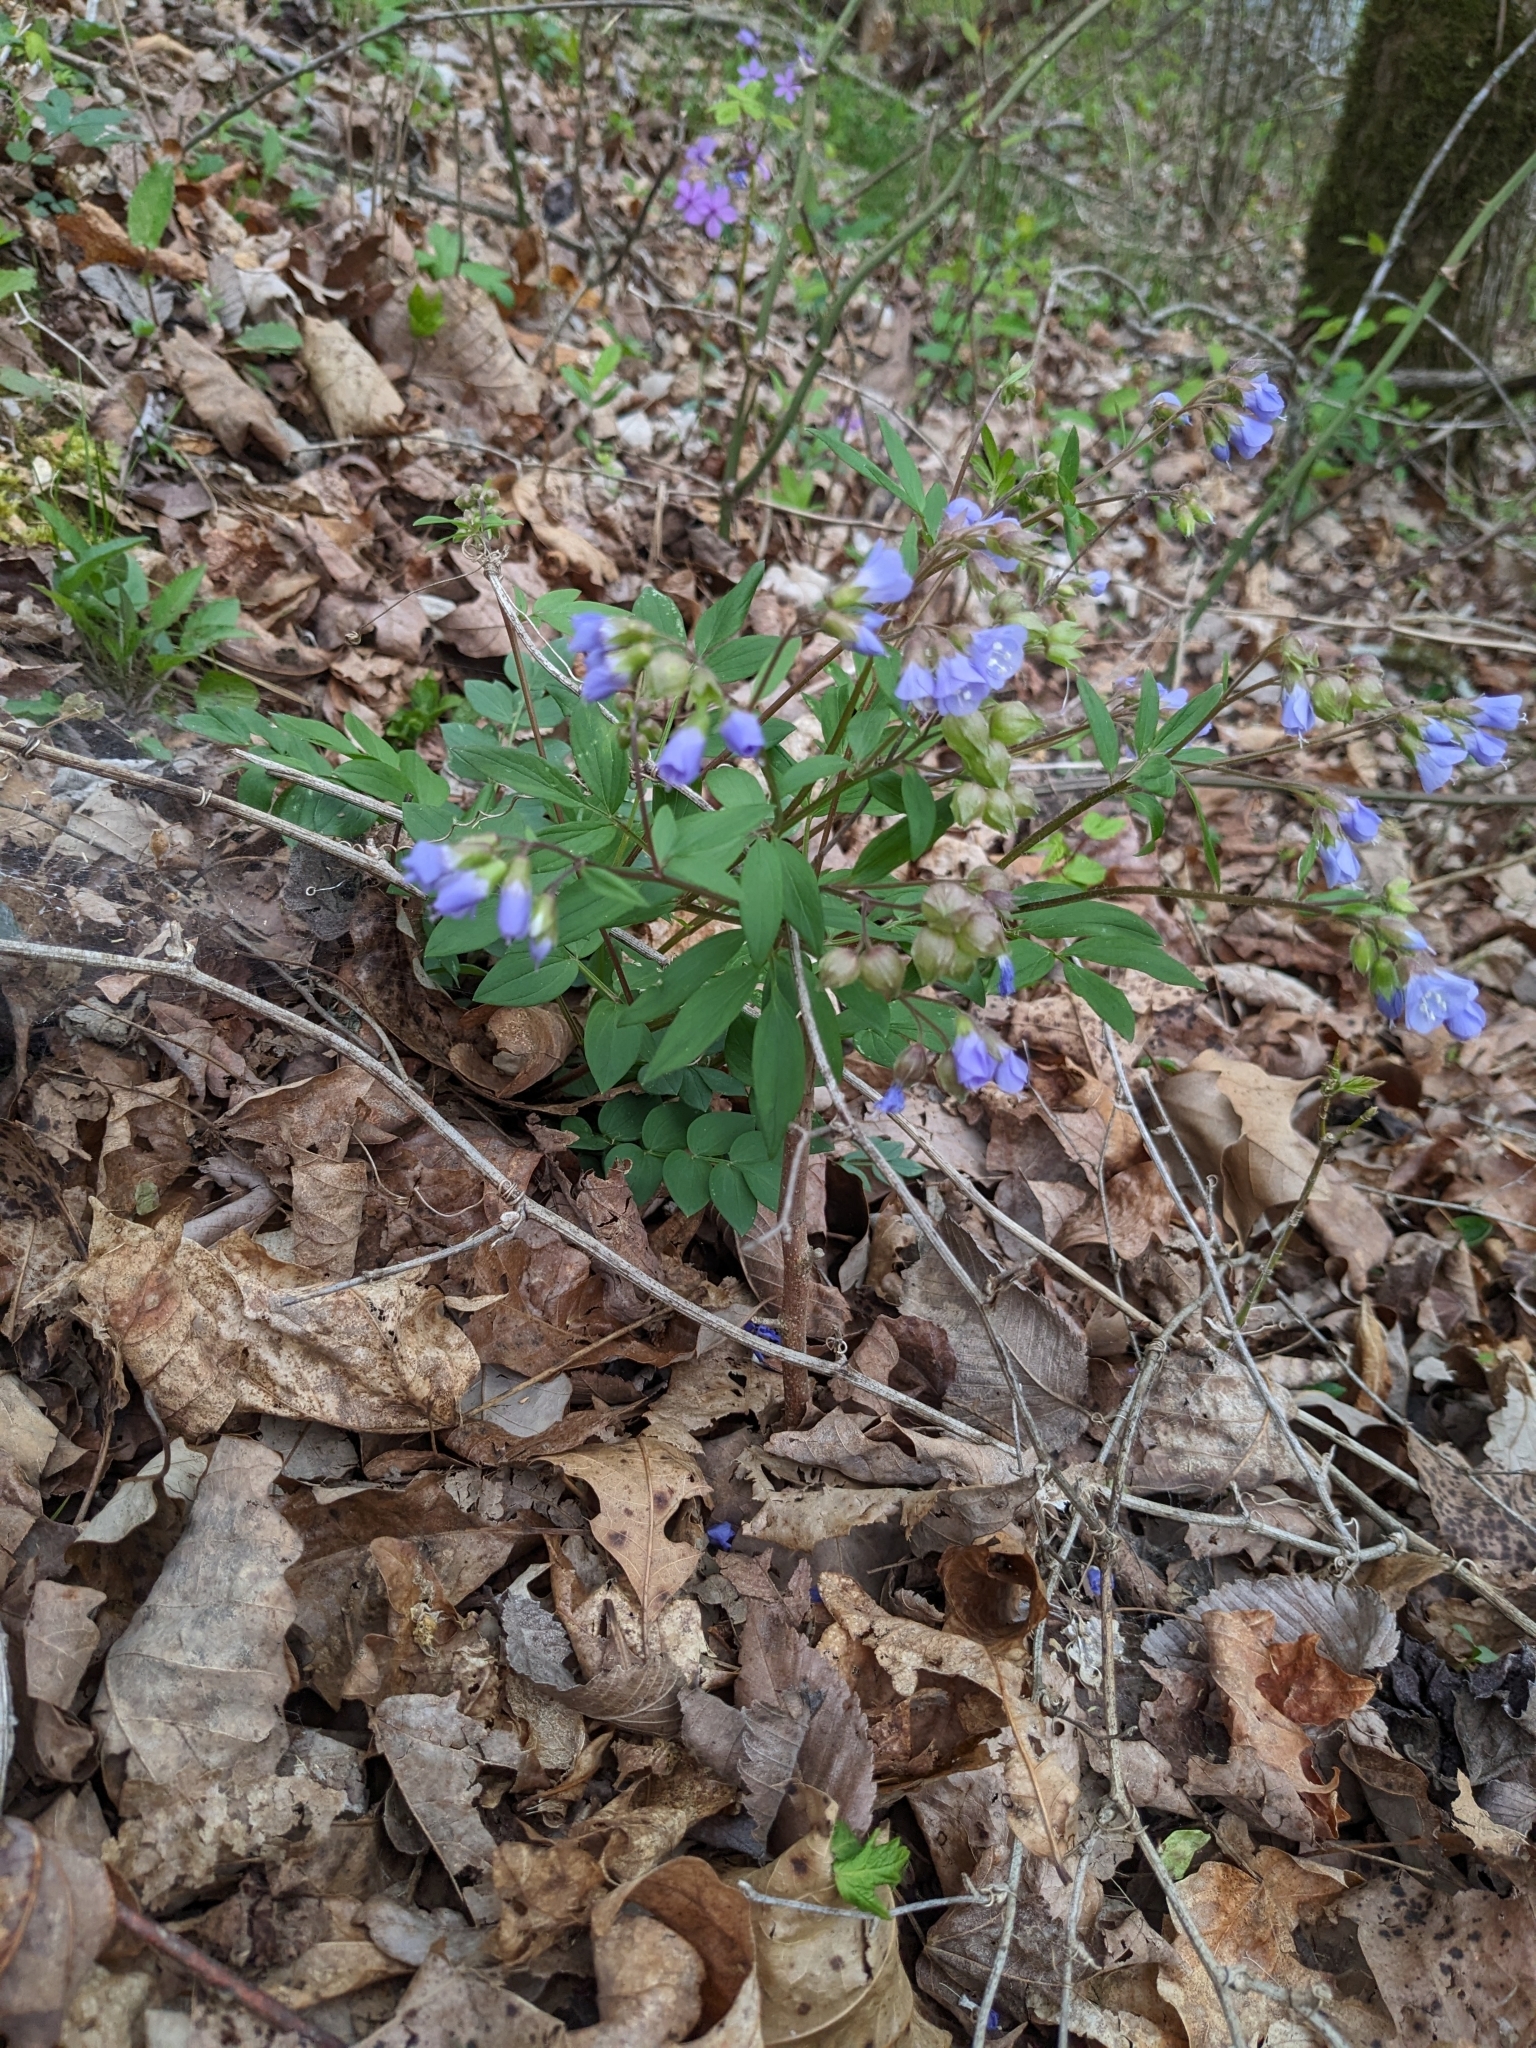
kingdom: Plantae
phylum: Tracheophyta
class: Magnoliopsida
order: Ericales
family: Polemoniaceae
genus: Polemonium
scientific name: Polemonium reptans
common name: Creeping jacob's-ladder
